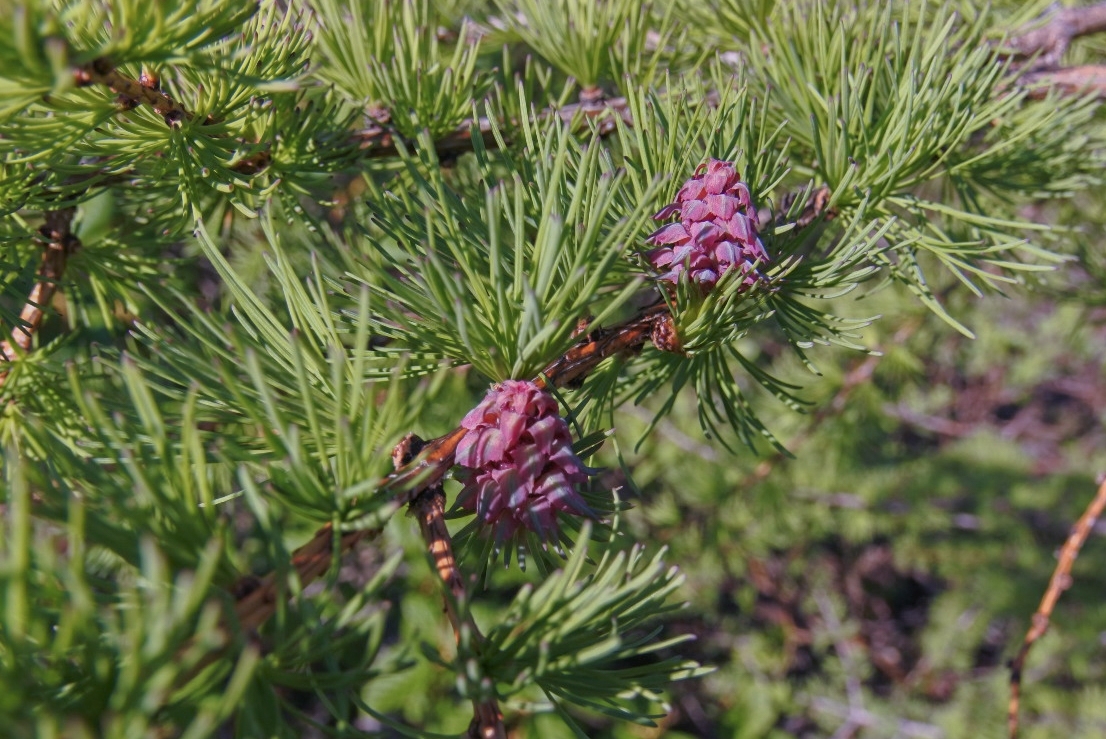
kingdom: Plantae
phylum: Tracheophyta
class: Pinopsida
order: Pinales
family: Pinaceae
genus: Larix
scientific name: Larix sibirica
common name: Siberian larch
